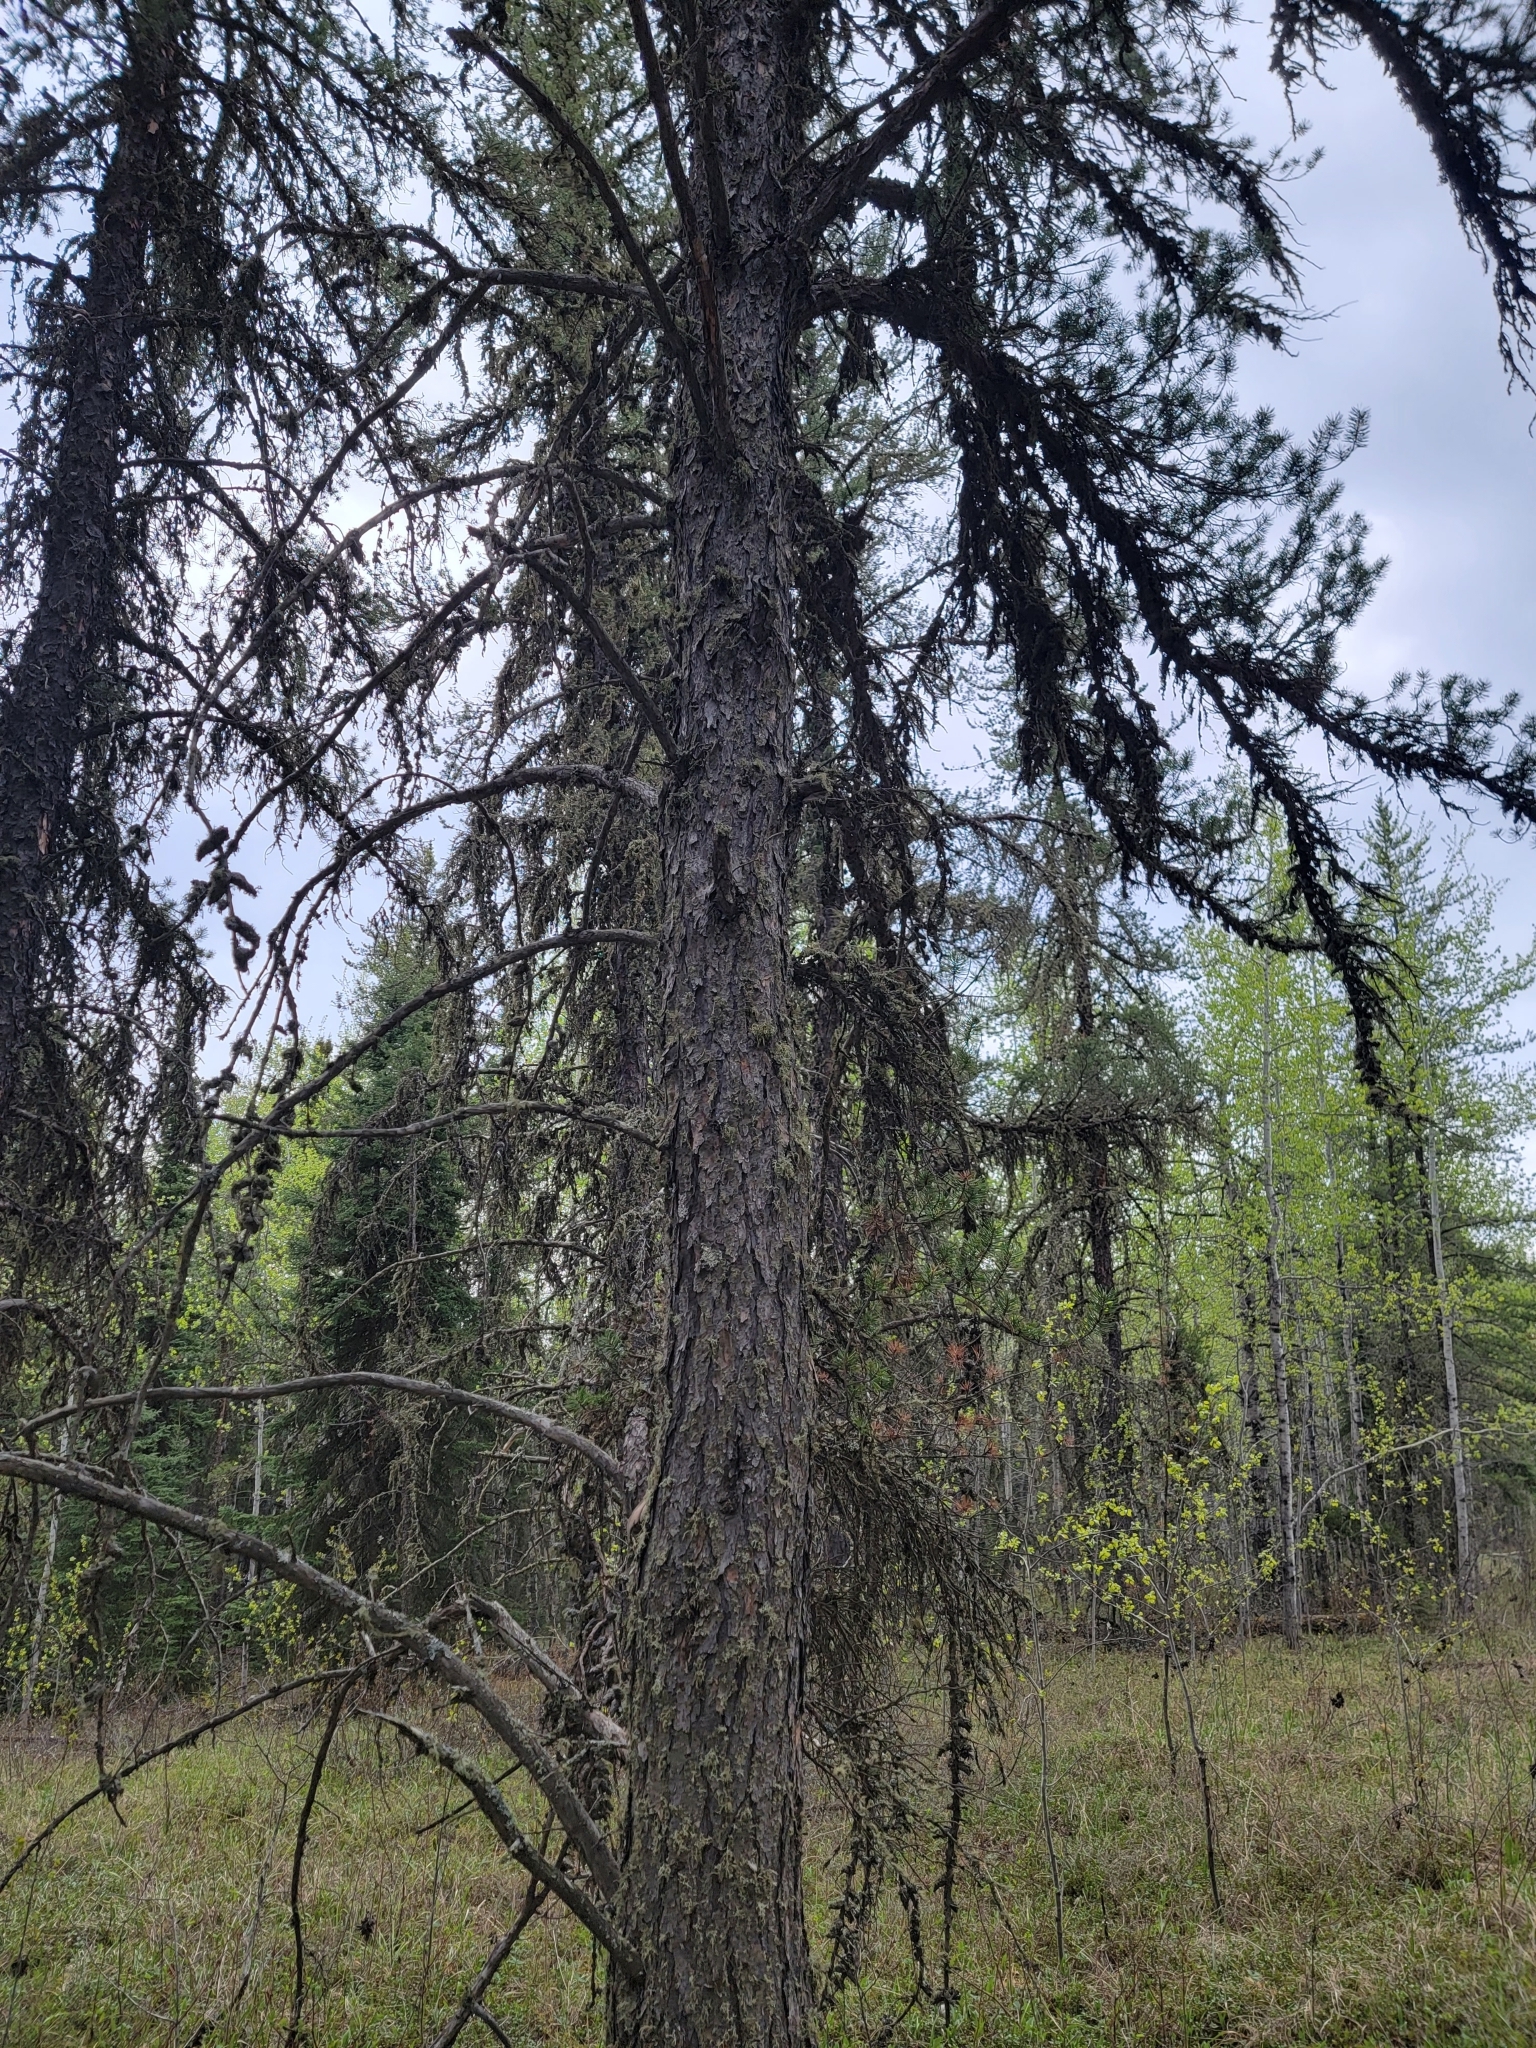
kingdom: Plantae
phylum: Tracheophyta
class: Pinopsida
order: Pinales
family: Pinaceae
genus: Pinus
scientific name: Pinus banksiana
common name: Jack pine
